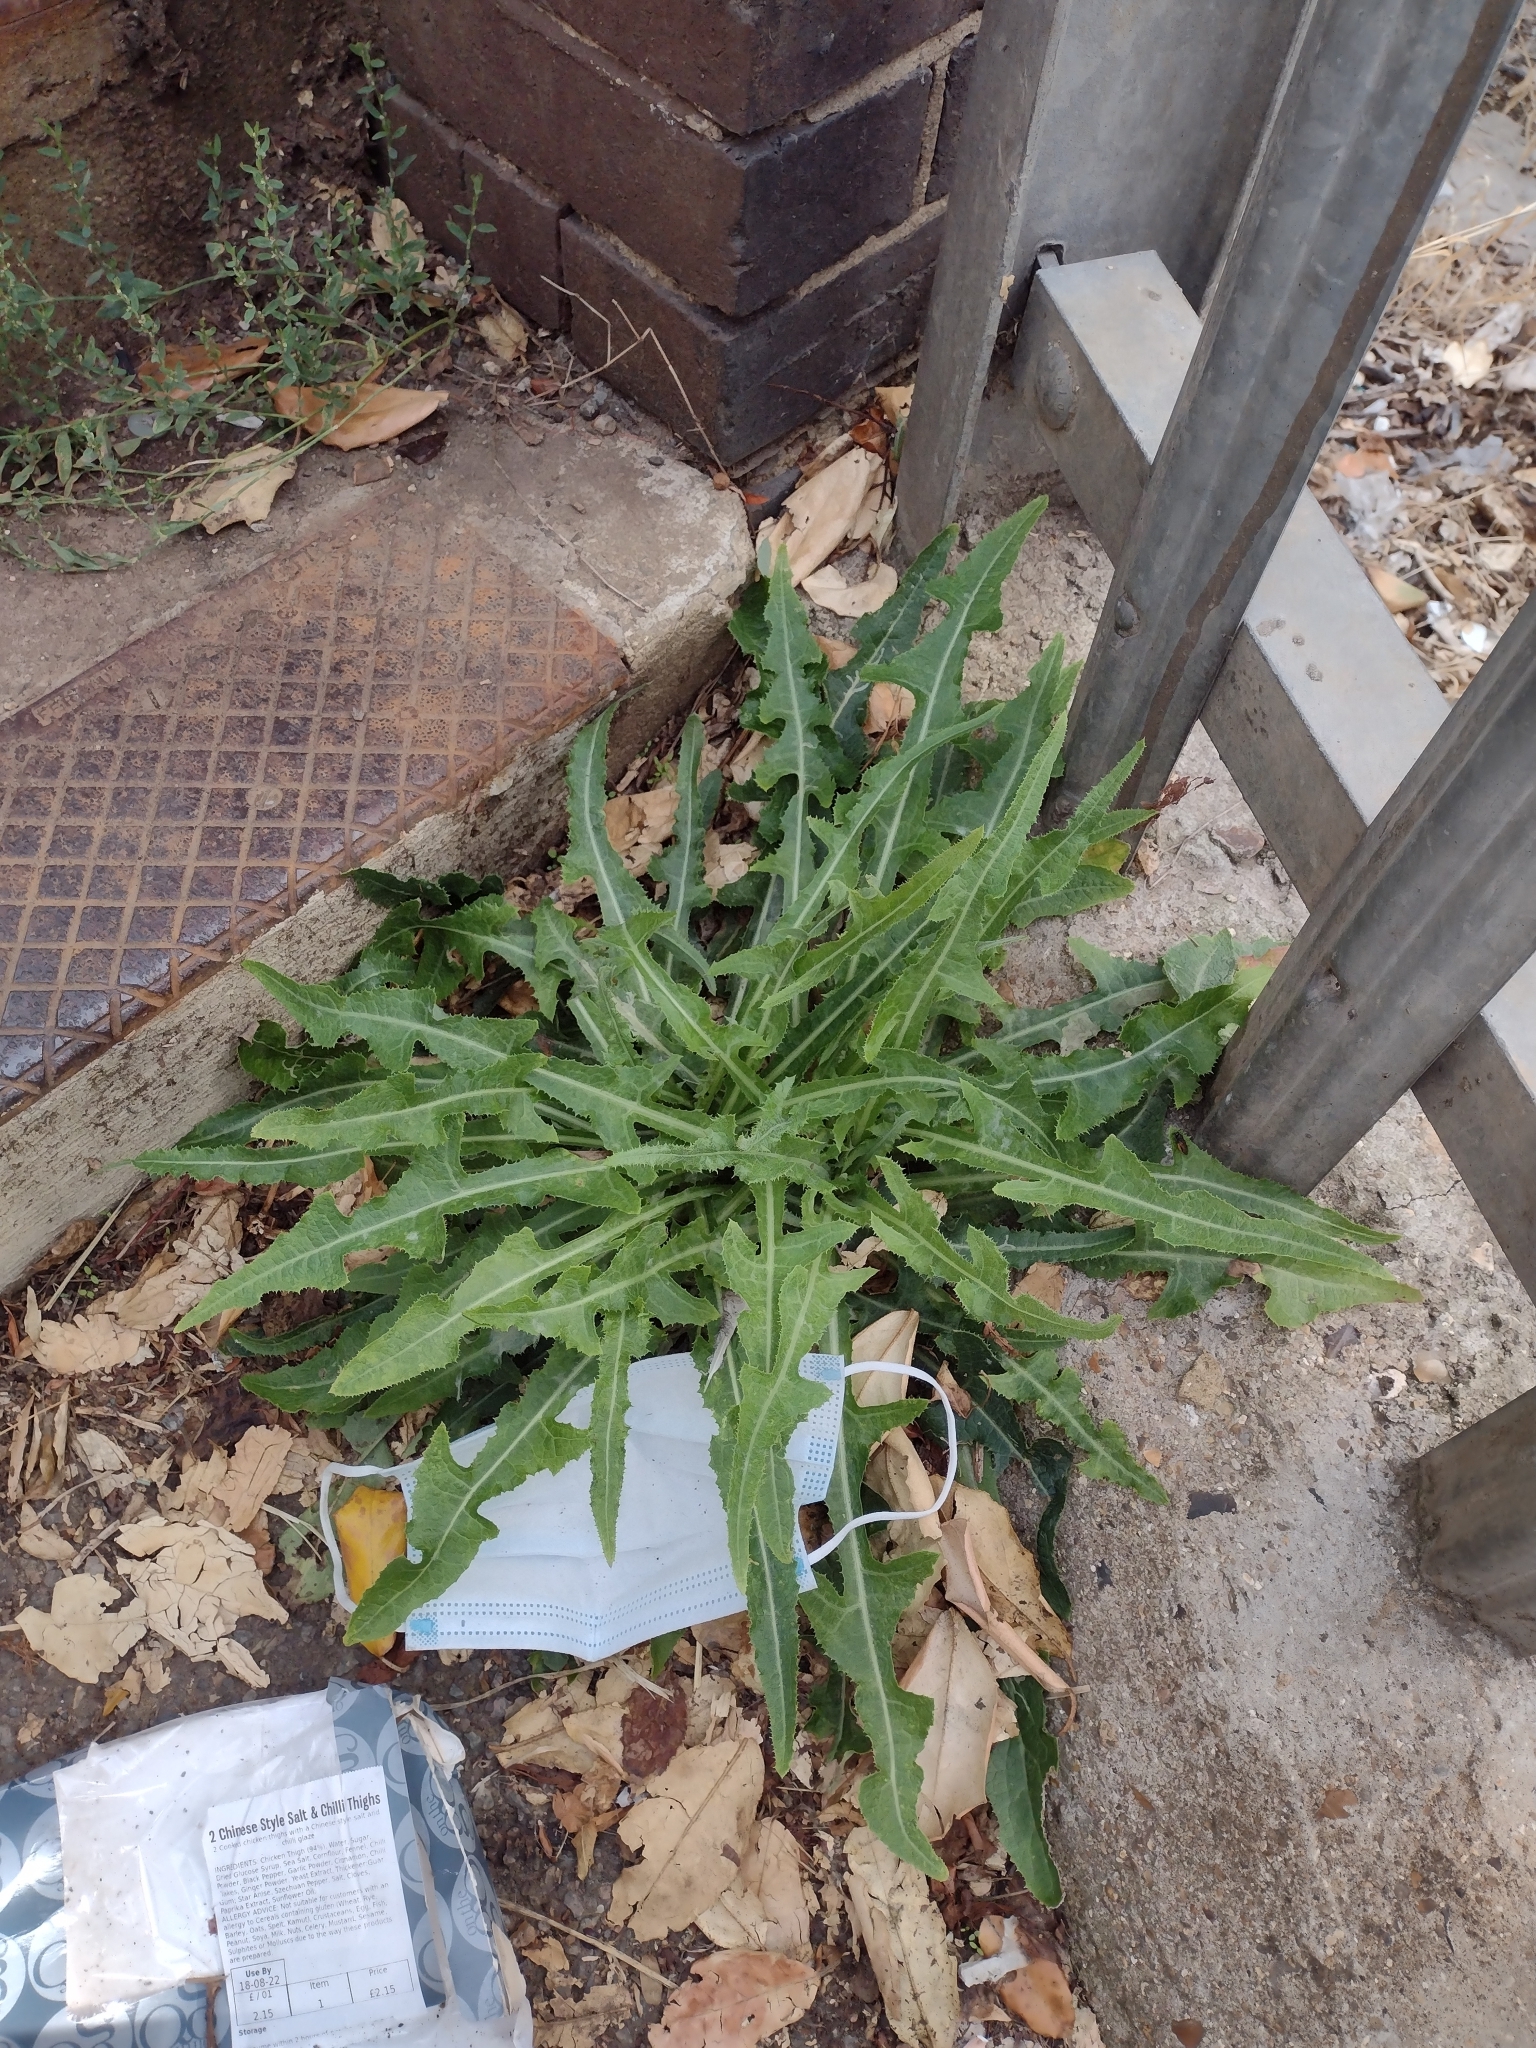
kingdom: Plantae
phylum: Tracheophyta
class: Magnoliopsida
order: Asterales
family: Asteraceae
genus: Sonchus
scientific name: Sonchus arvensis
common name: Perennial sow-thistle
